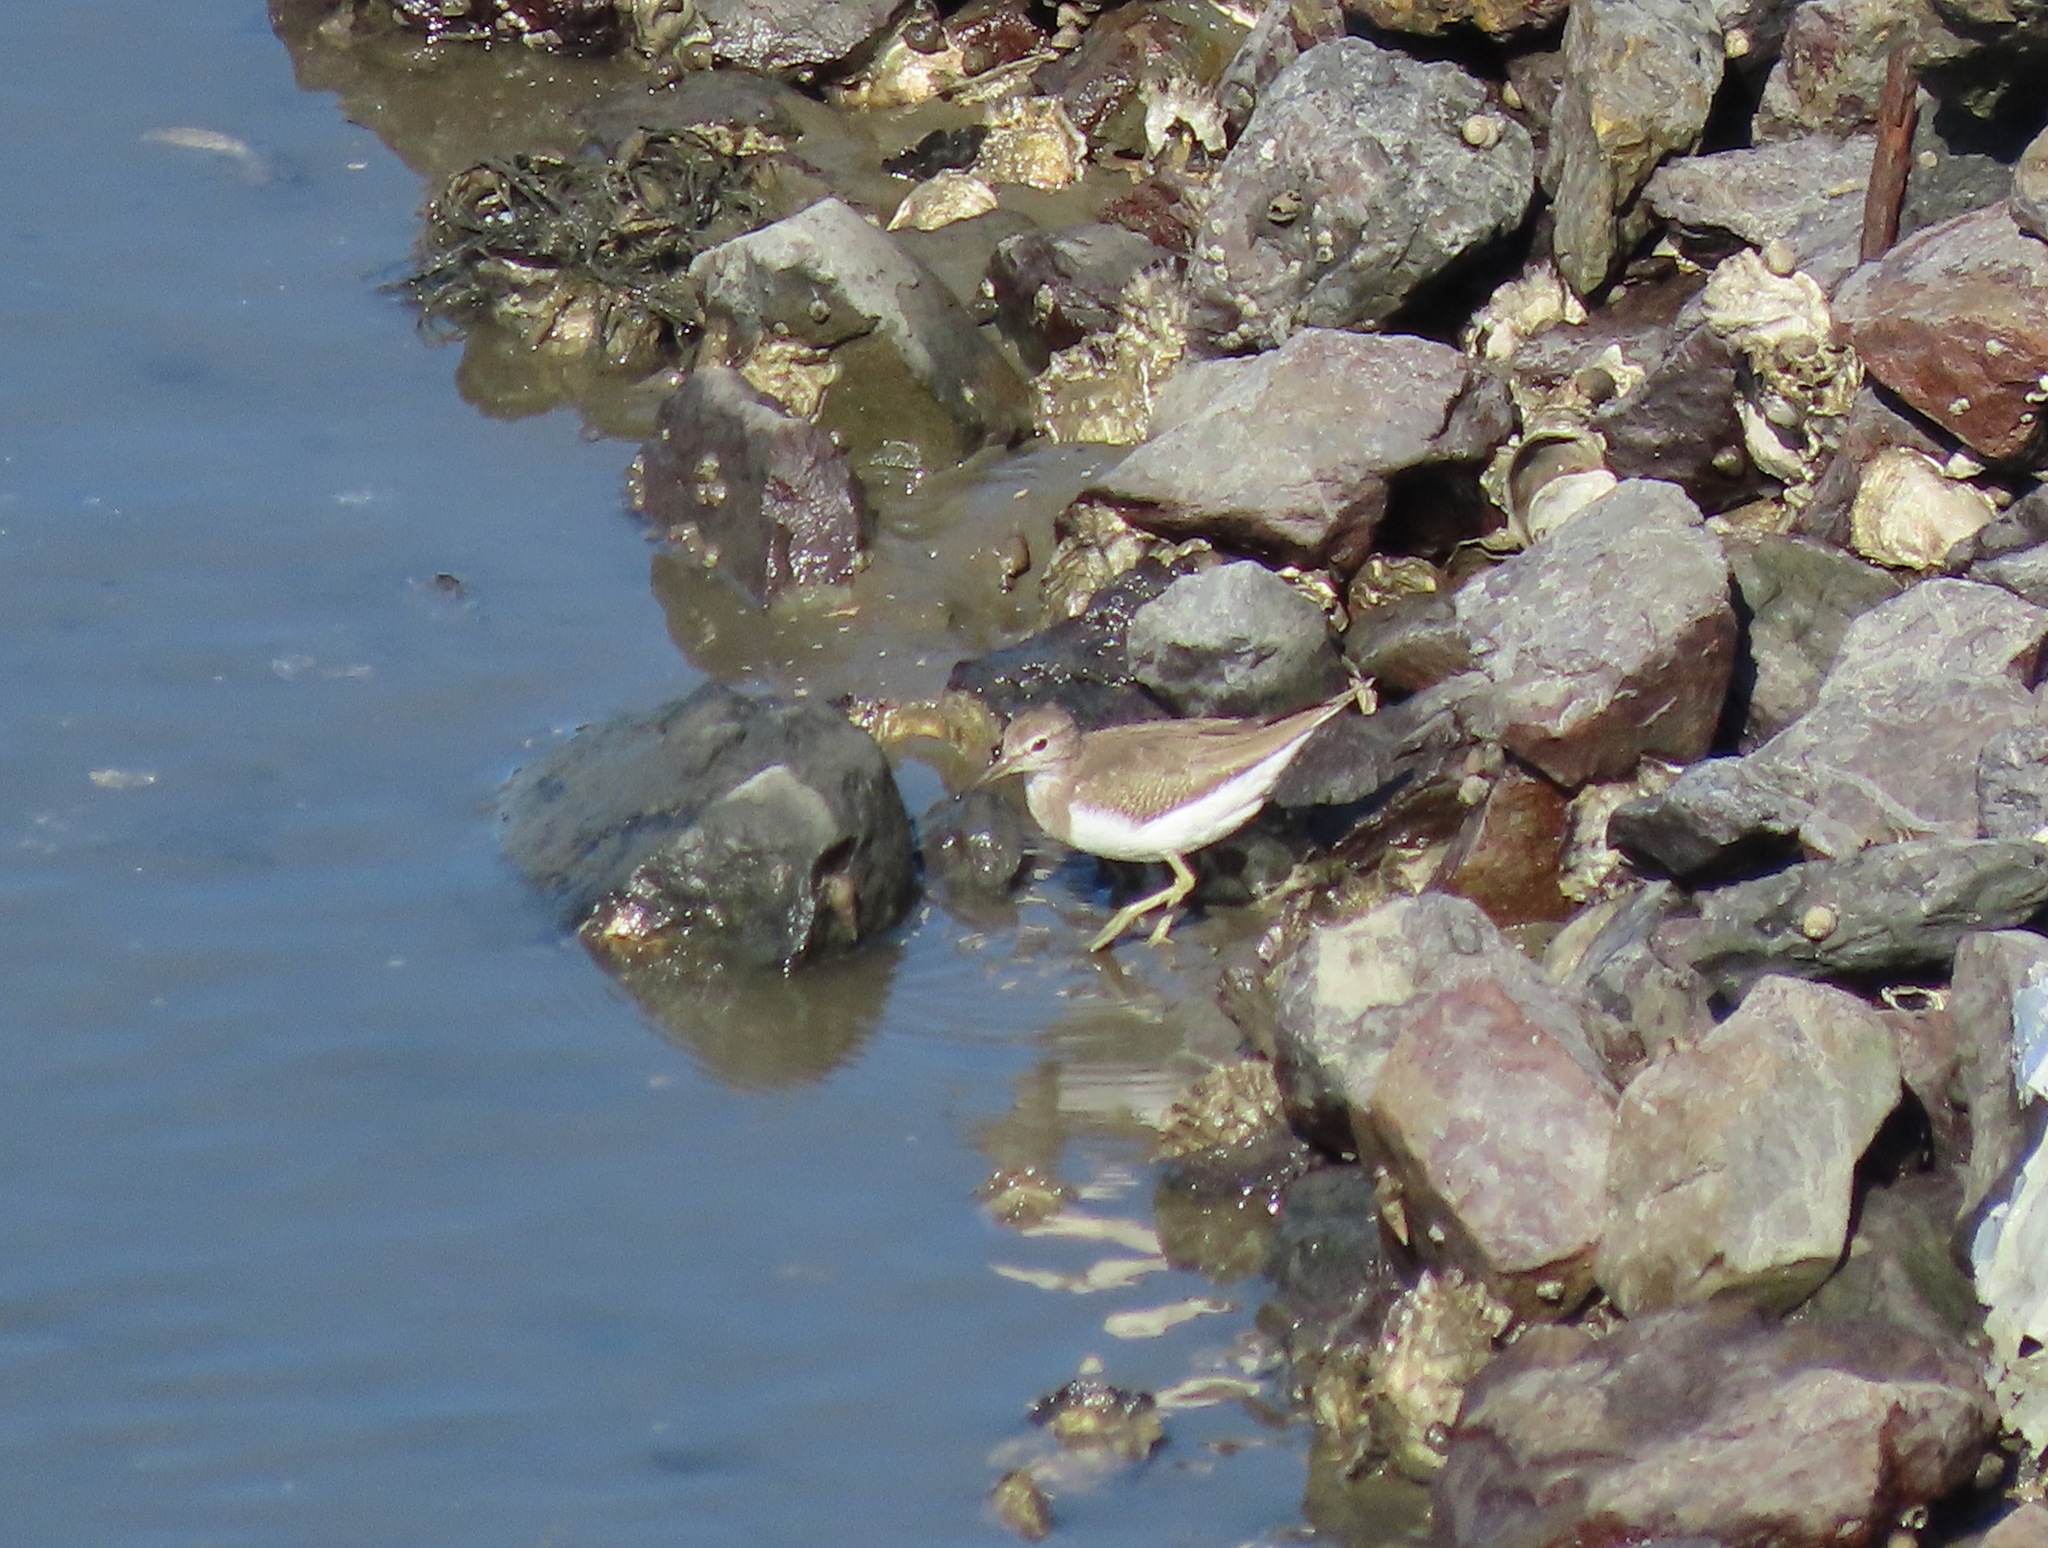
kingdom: Animalia
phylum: Chordata
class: Aves
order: Charadriiformes
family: Scolopacidae
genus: Actitis
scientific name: Actitis hypoleucos
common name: Common sandpiper
